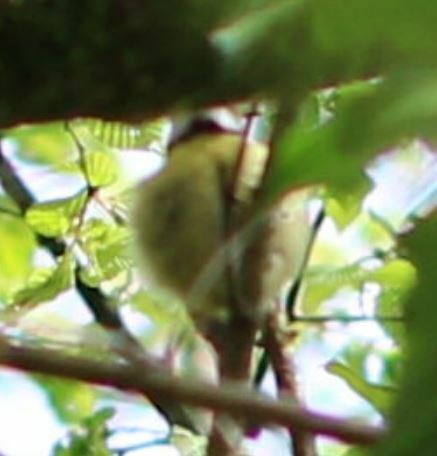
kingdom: Animalia
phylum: Chordata
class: Aves
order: Passeriformes
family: Paridae
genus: Cyanistes
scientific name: Cyanistes caeruleus
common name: Eurasian blue tit
